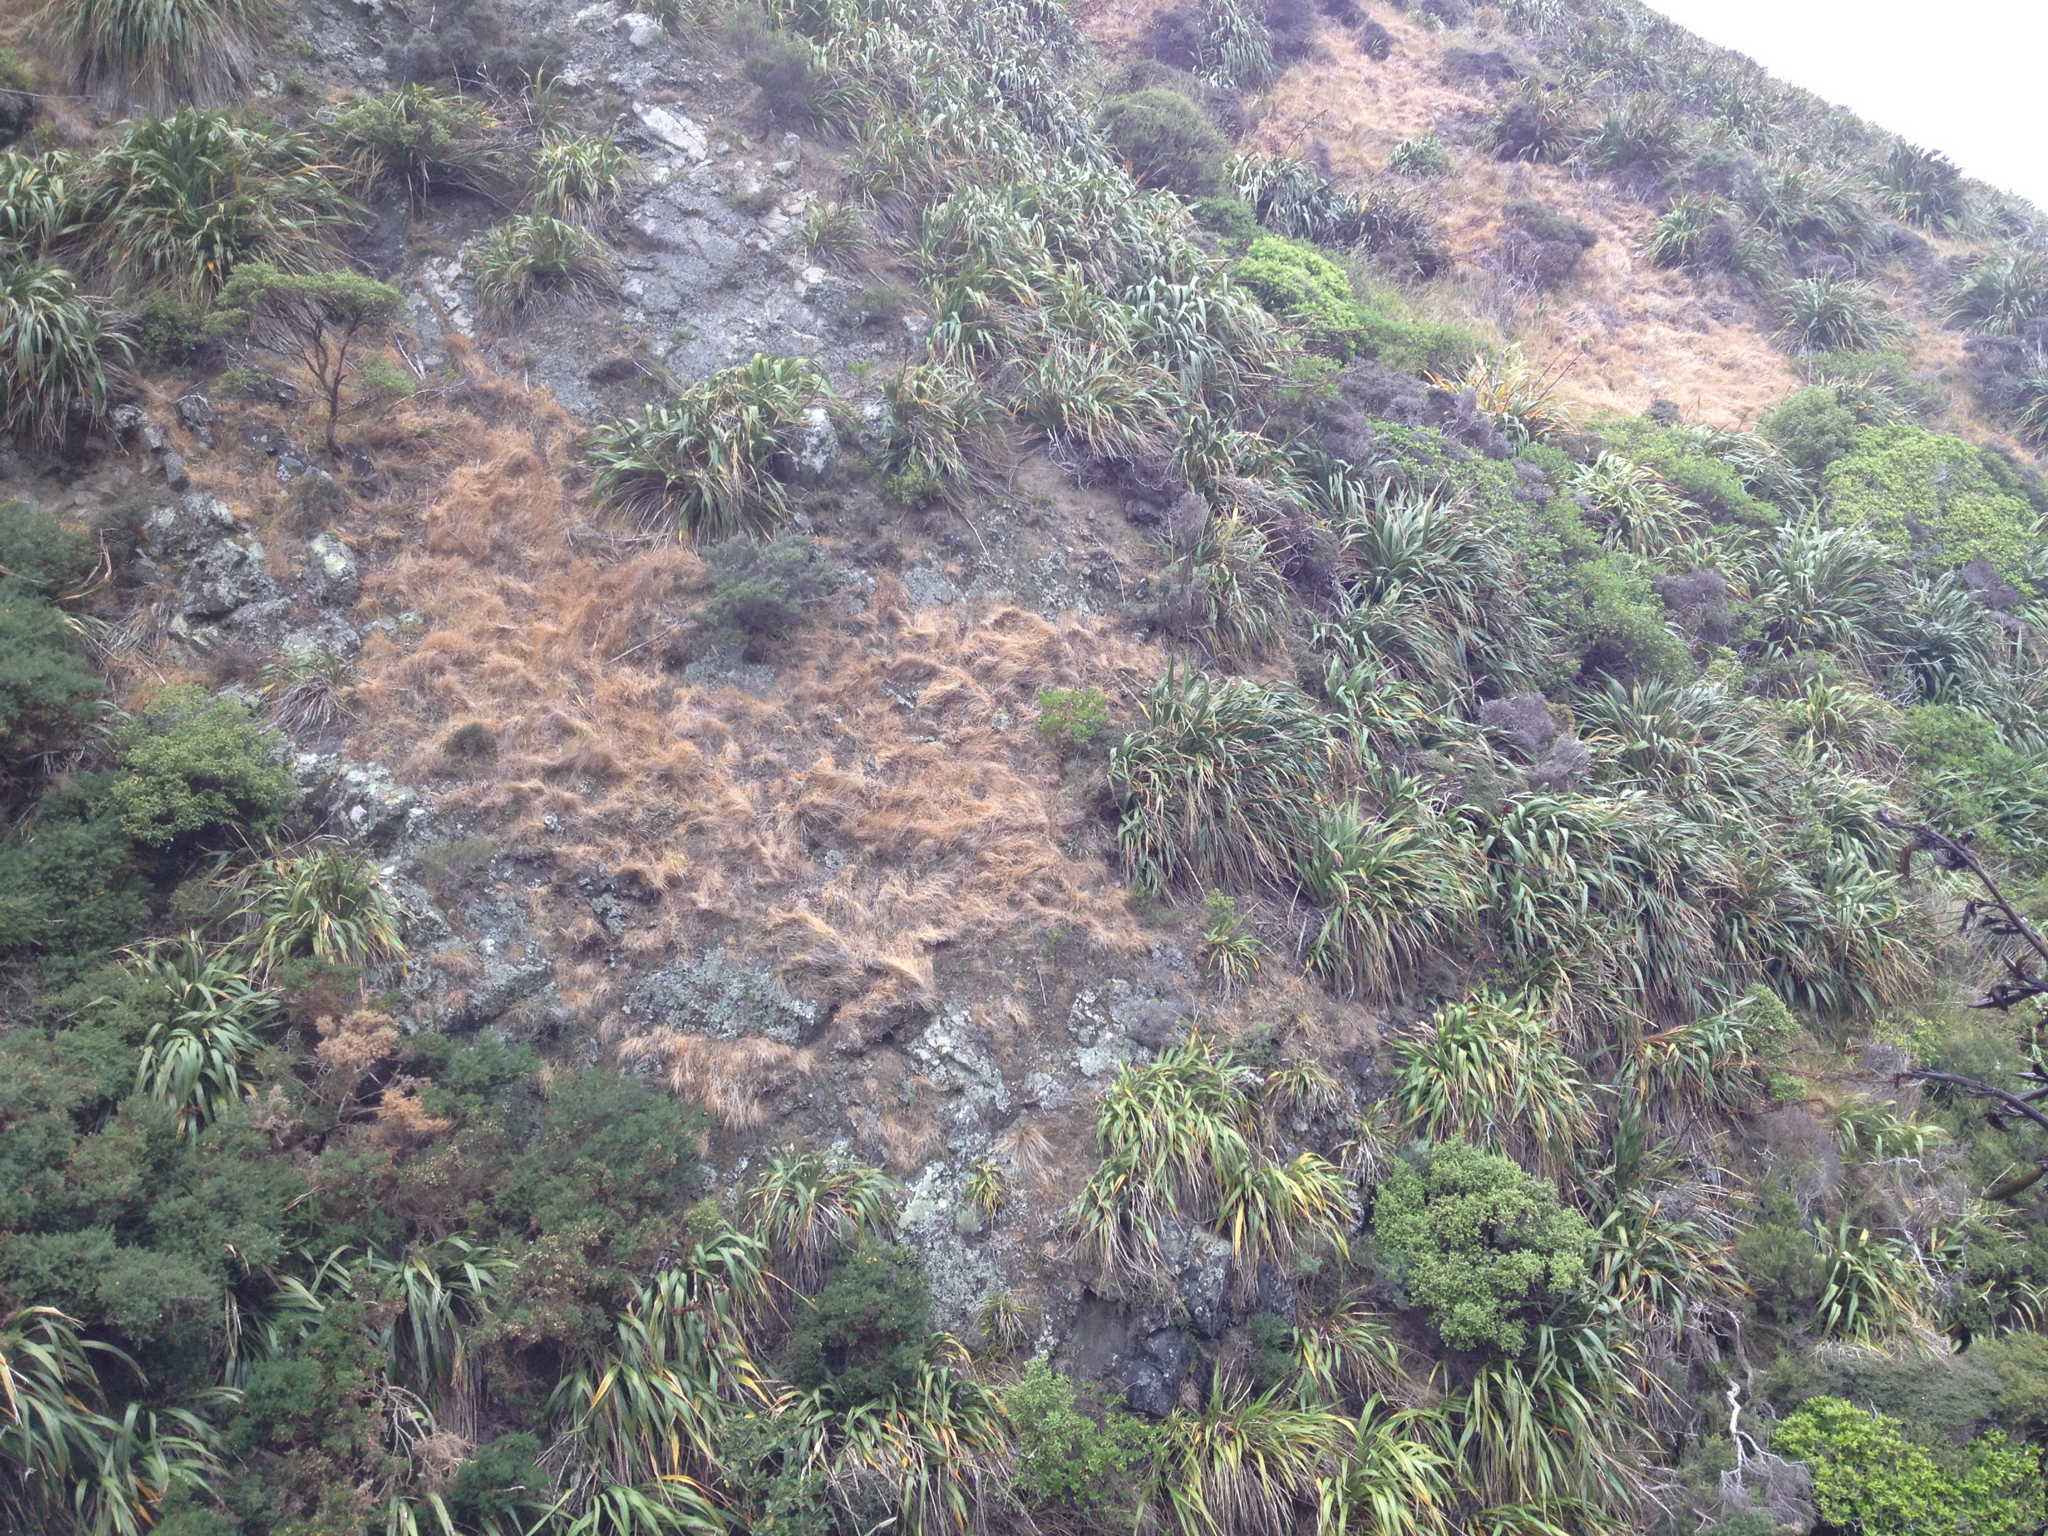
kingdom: Plantae
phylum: Tracheophyta
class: Magnoliopsida
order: Asterales
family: Asteraceae
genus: Osteospermum
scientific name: Osteospermum moniliferum
